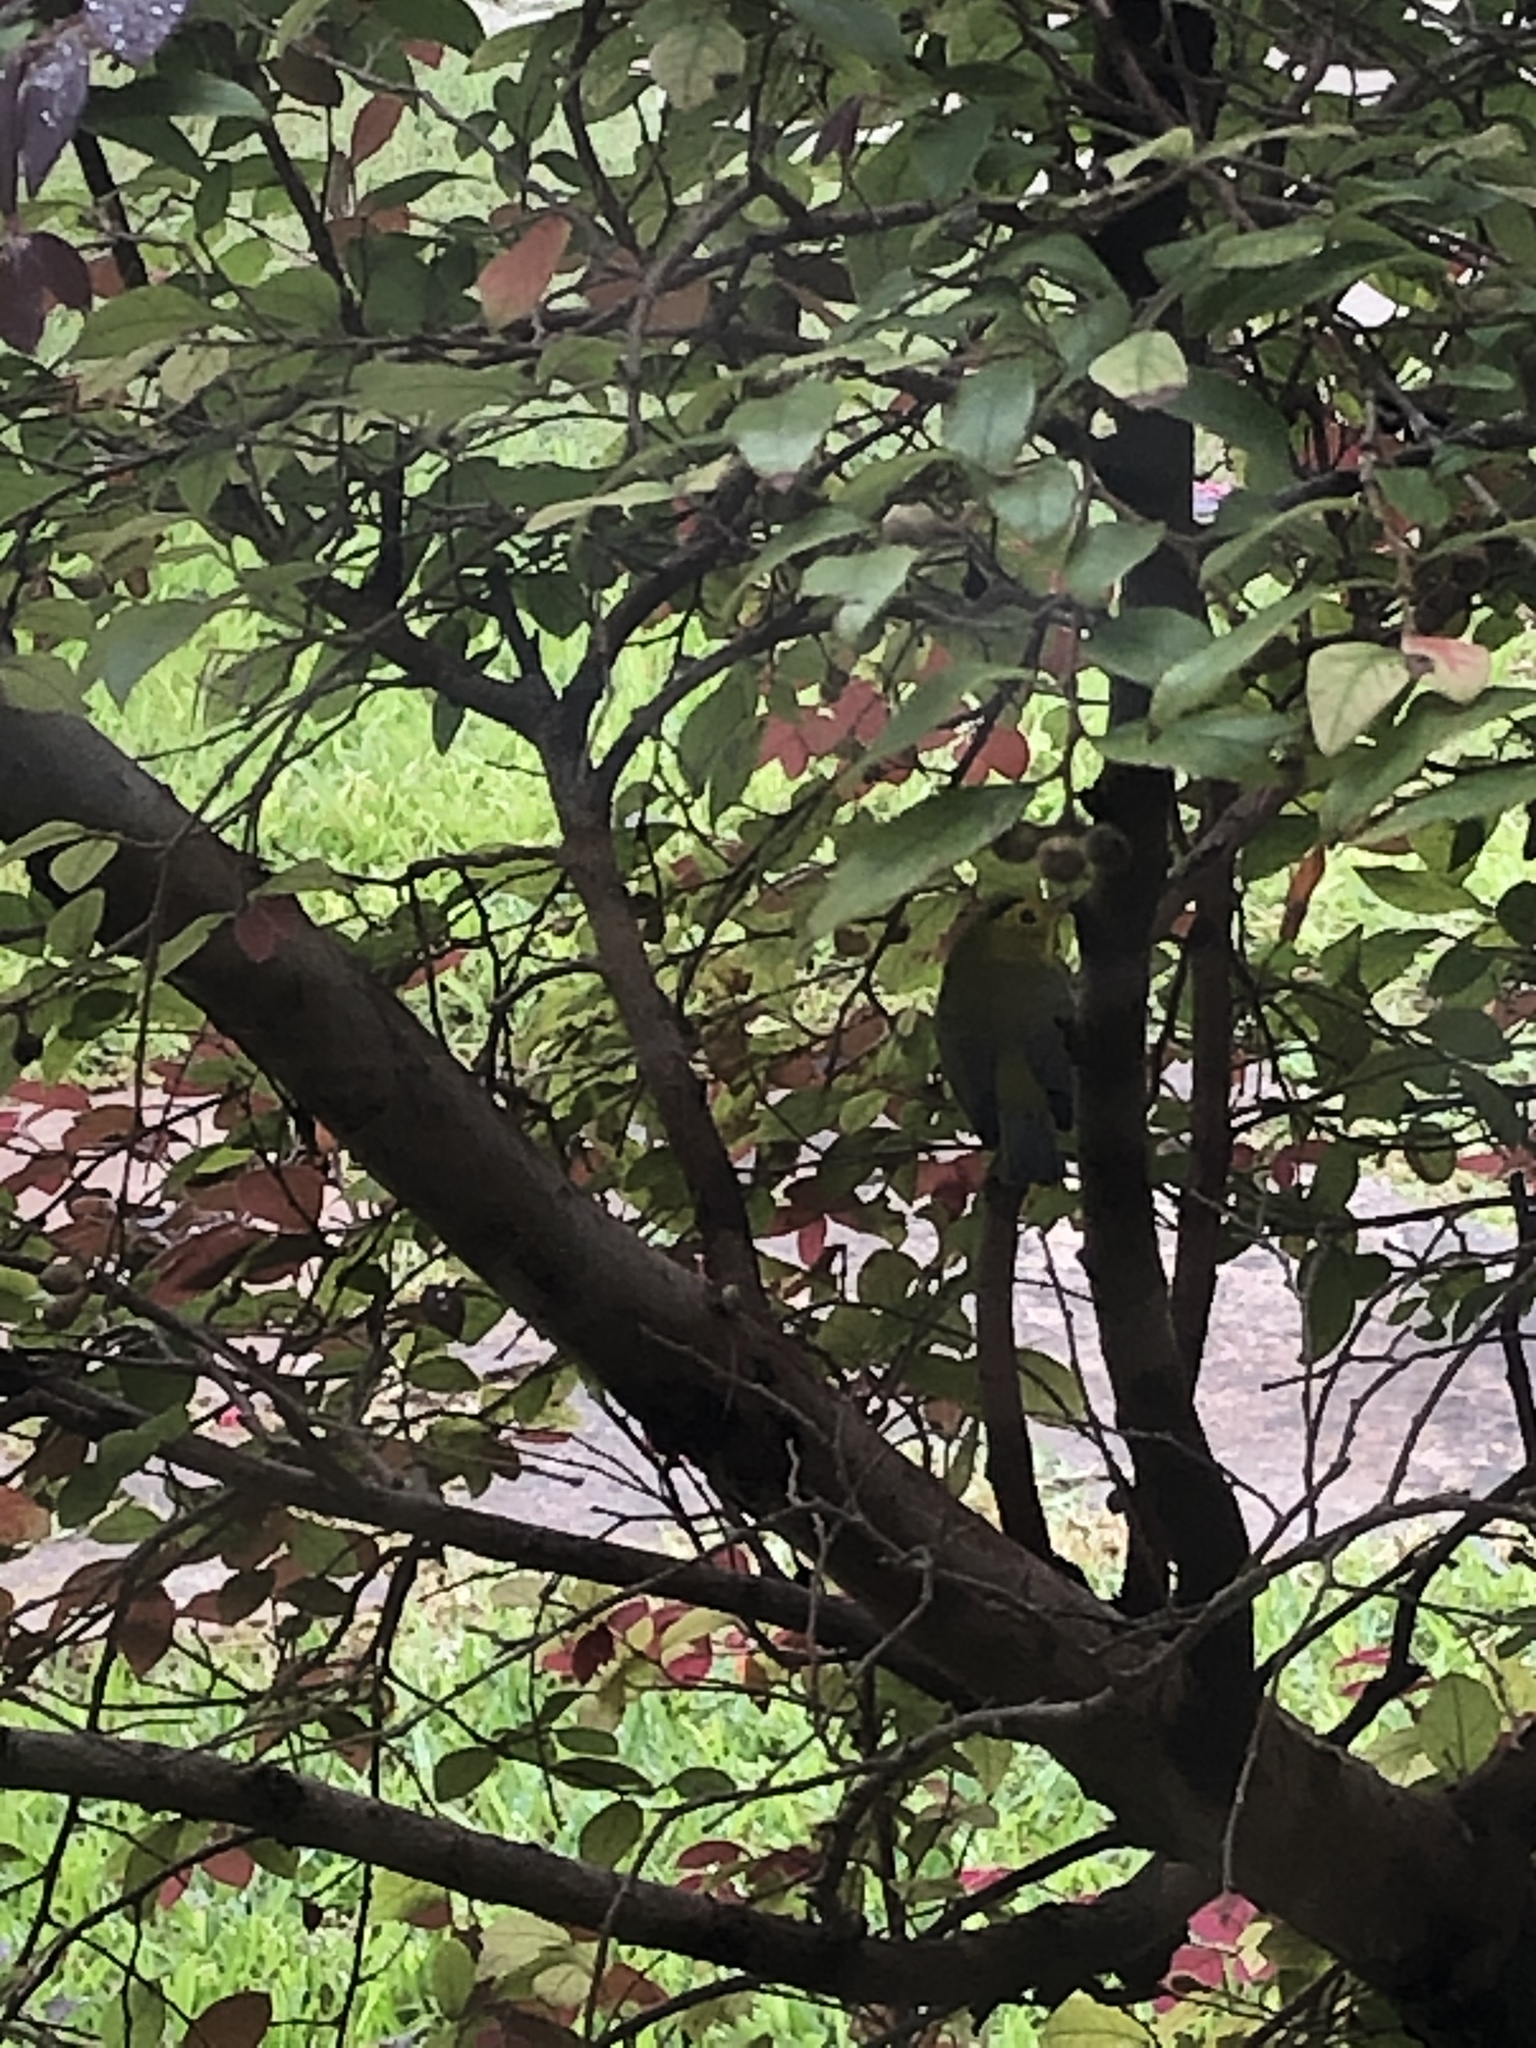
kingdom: Animalia
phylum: Chordata
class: Aves
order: Passeriformes
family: Parulidae
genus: Cardellina
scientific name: Cardellina pusilla
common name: Wilson's warbler
